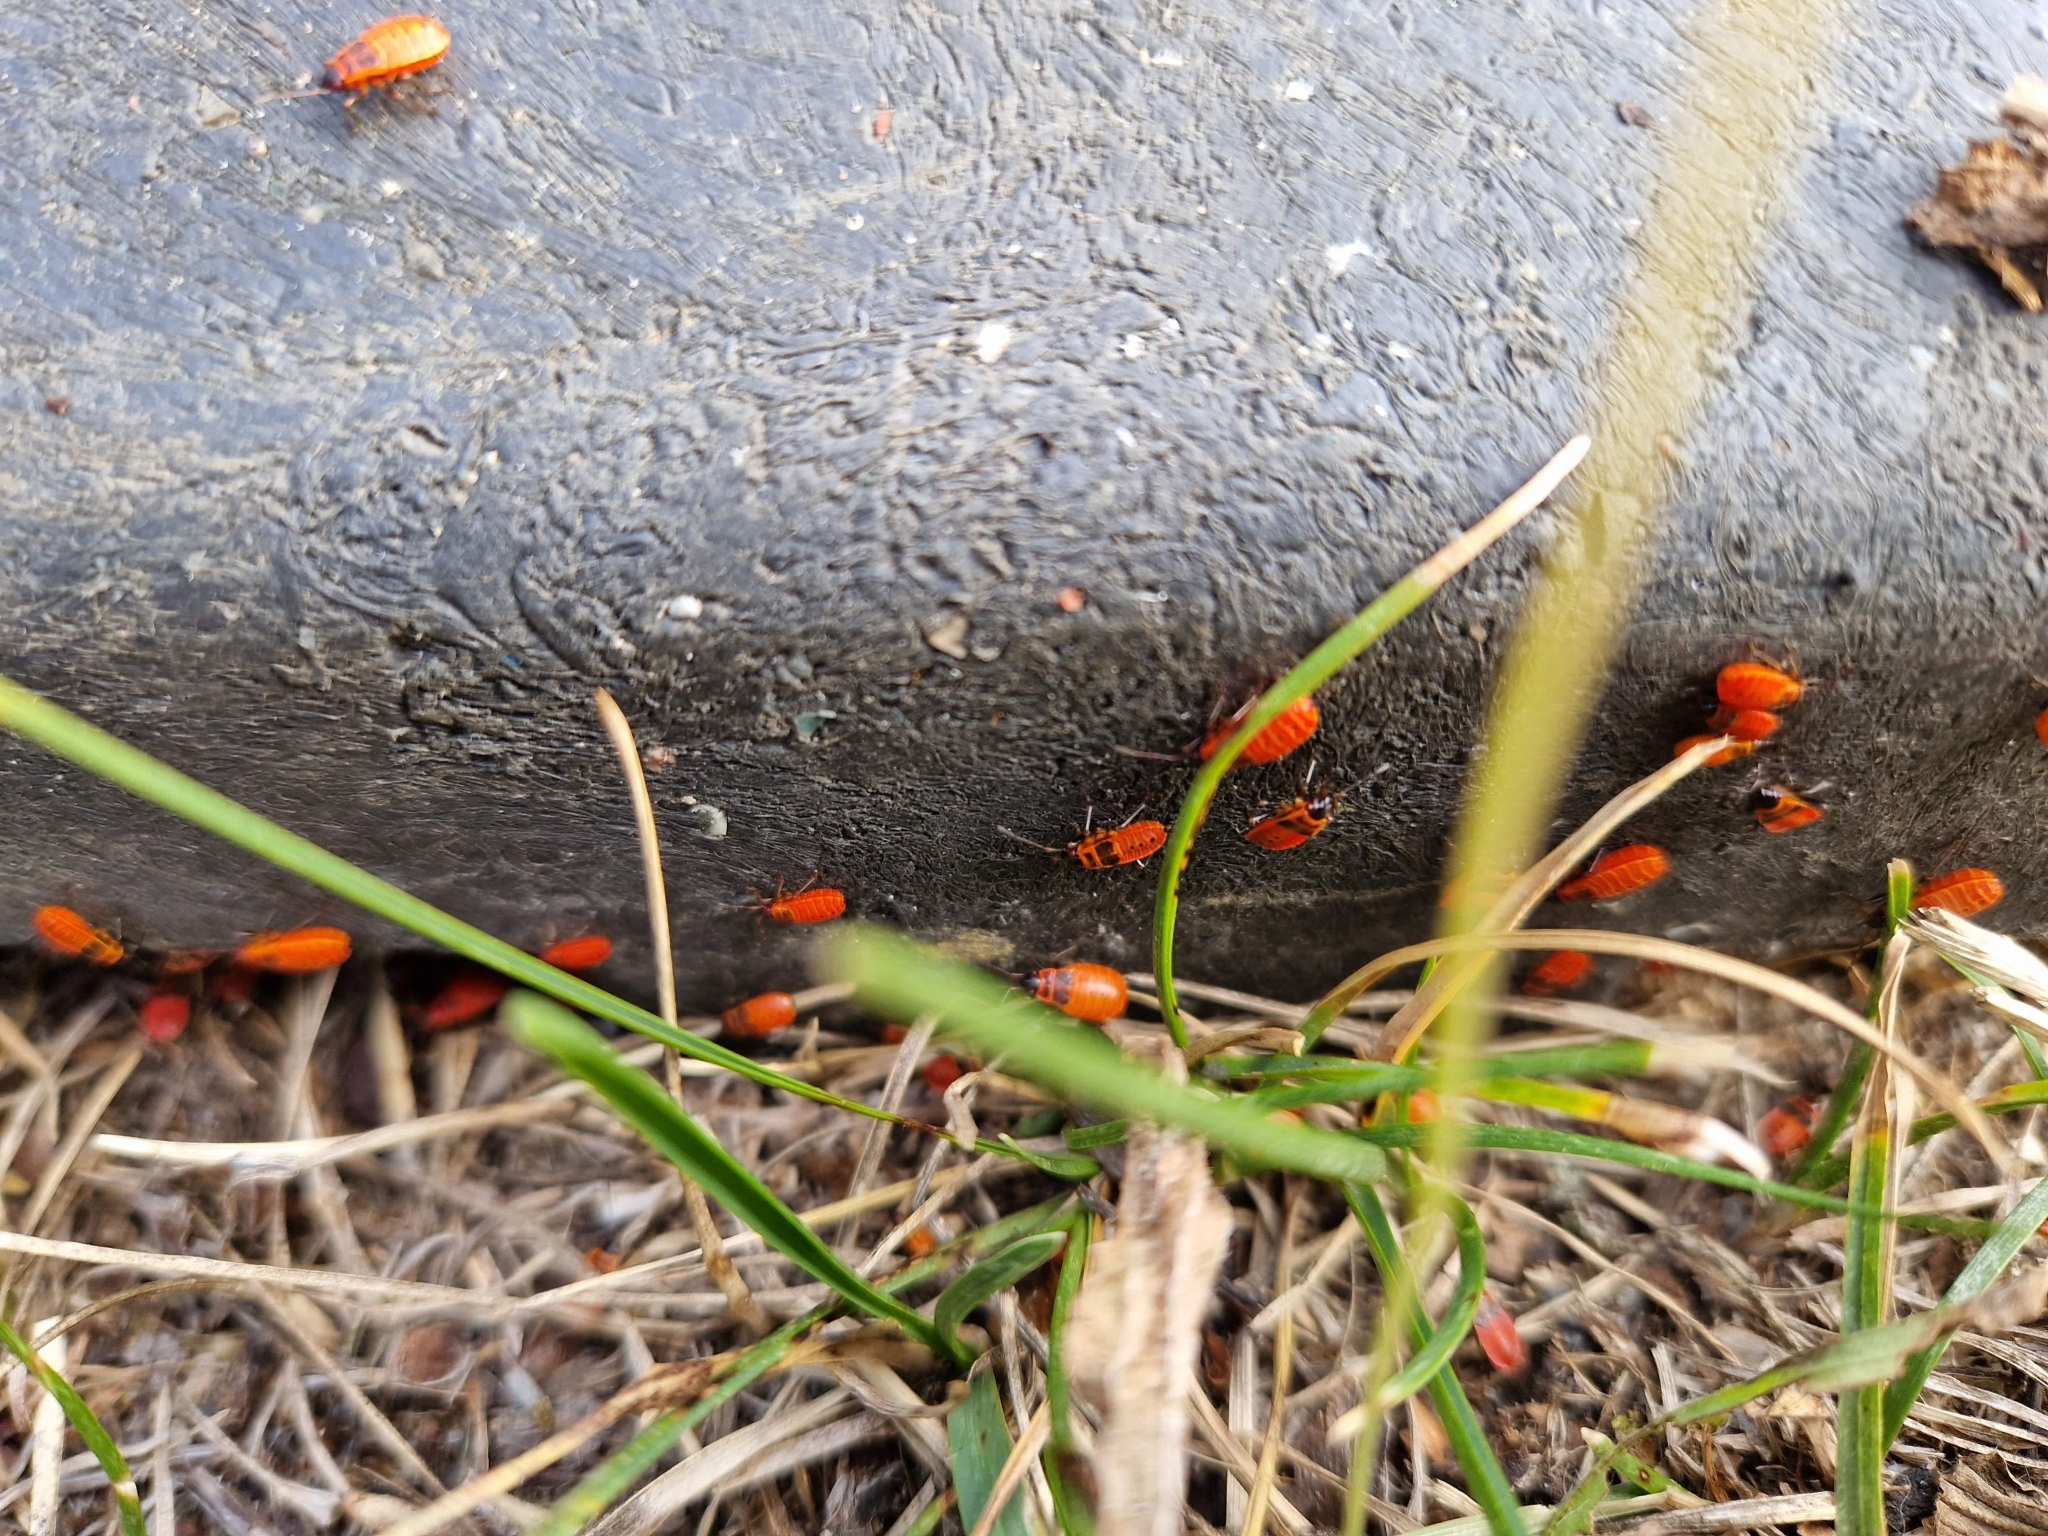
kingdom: Animalia
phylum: Arthropoda
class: Insecta
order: Hemiptera
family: Pyrrhocoridae
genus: Pyrrhocoris
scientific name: Pyrrhocoris apterus
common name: Firebug
